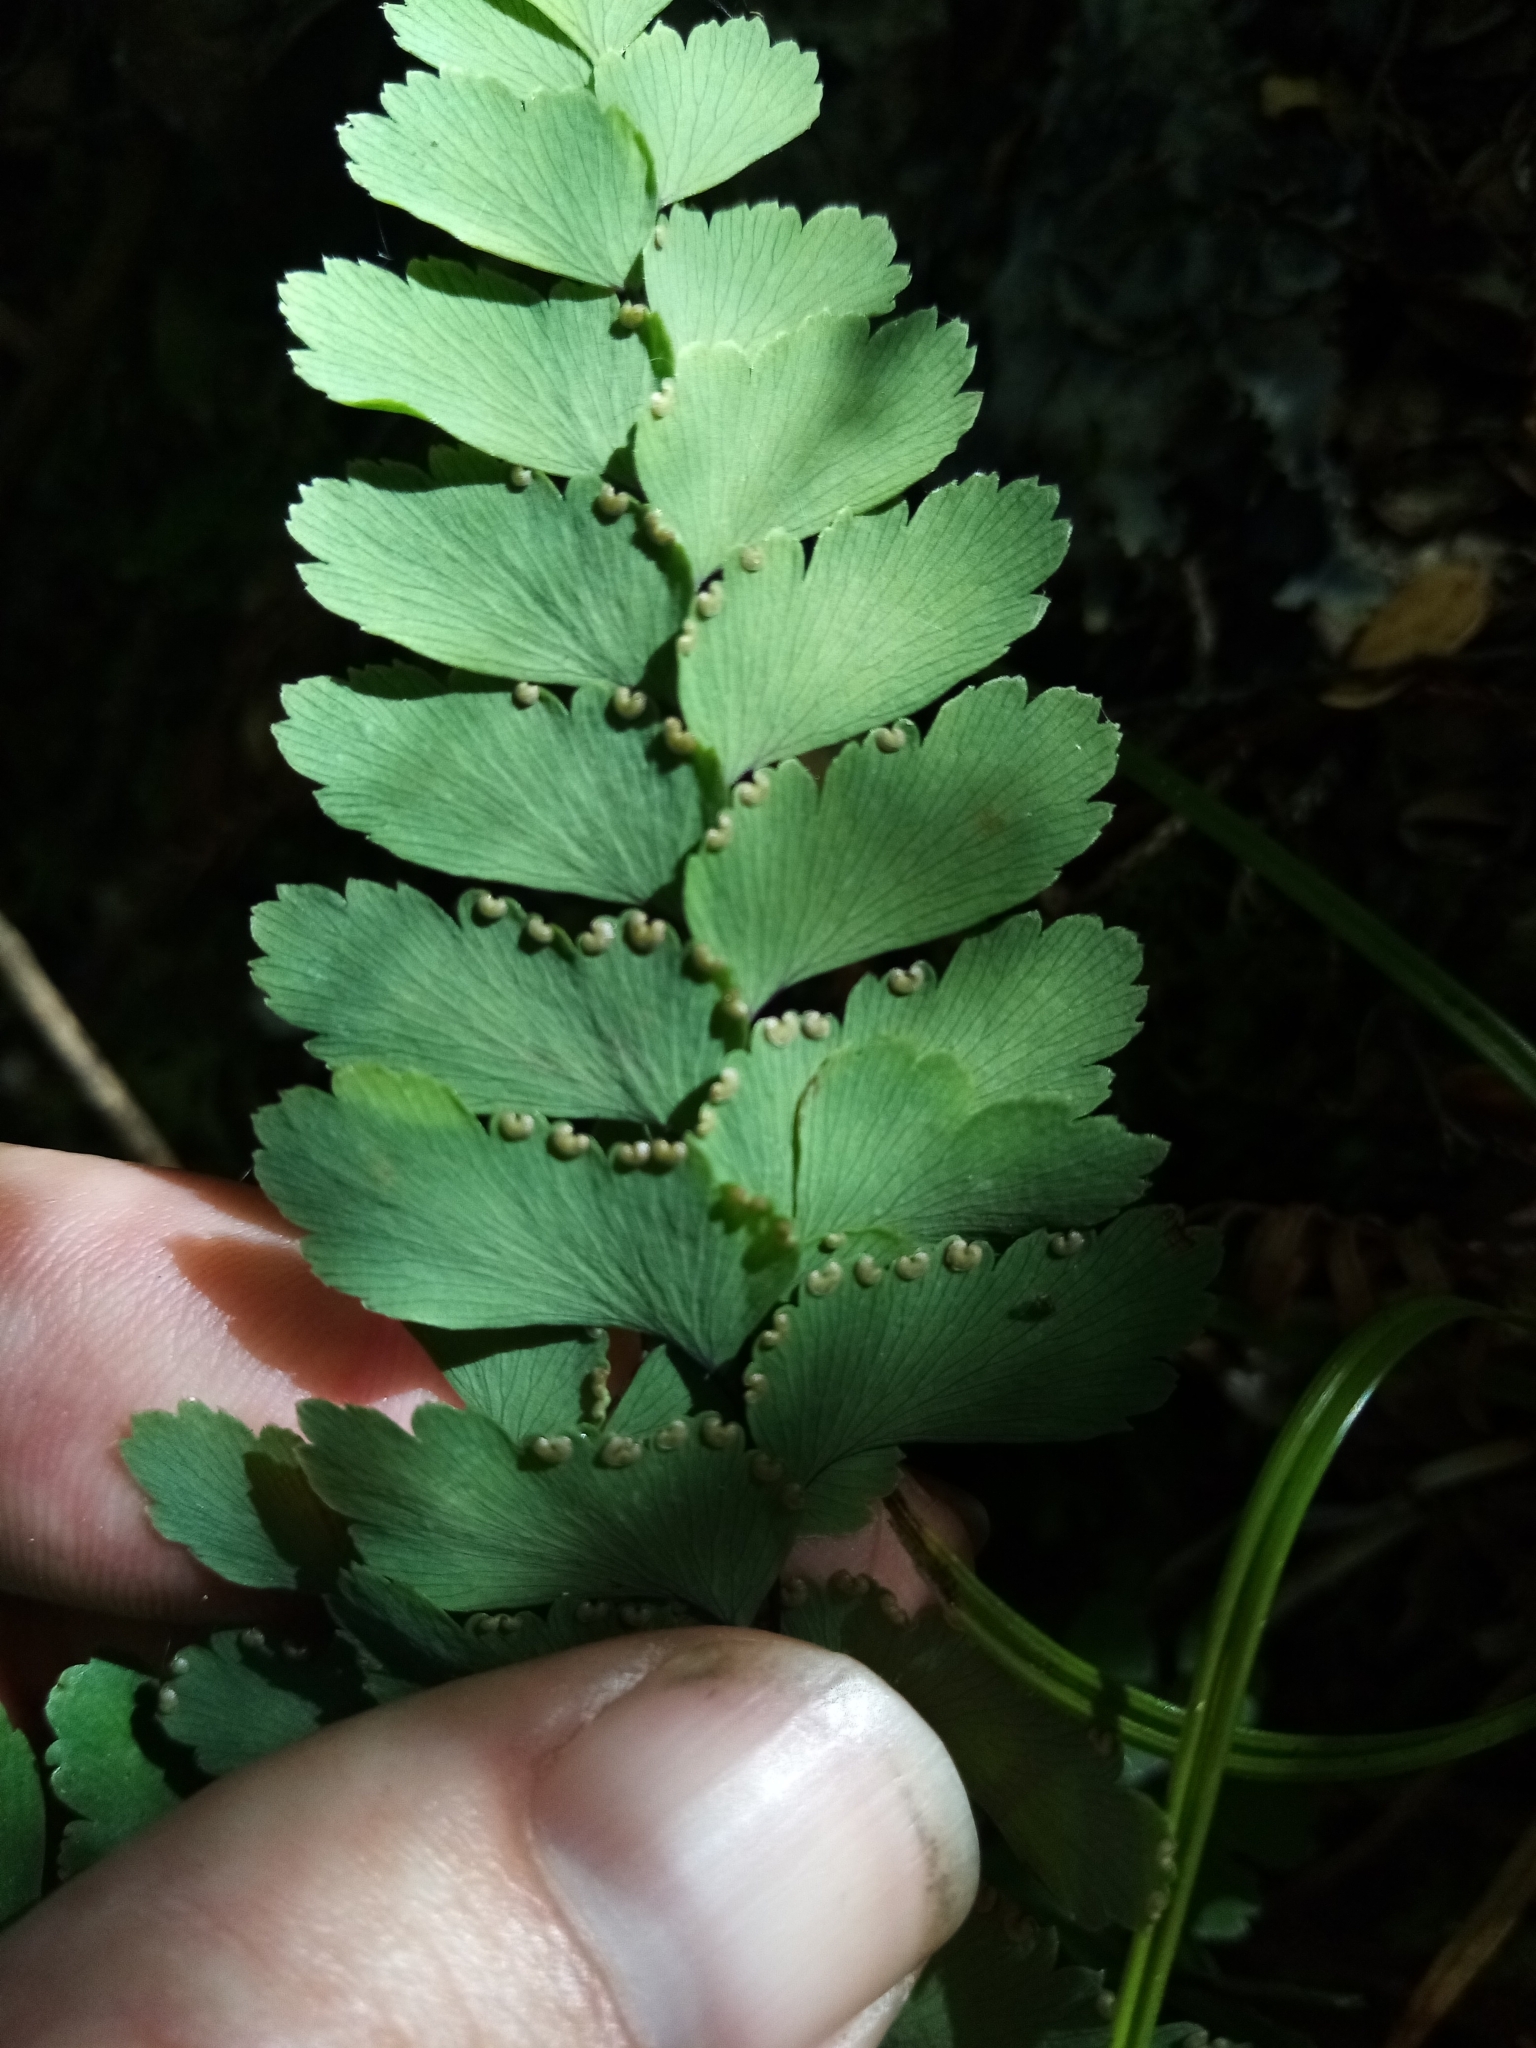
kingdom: Plantae
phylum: Tracheophyta
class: Polypodiopsida
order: Polypodiales
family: Pteridaceae
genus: Adiantum
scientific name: Adiantum cunninghamii
